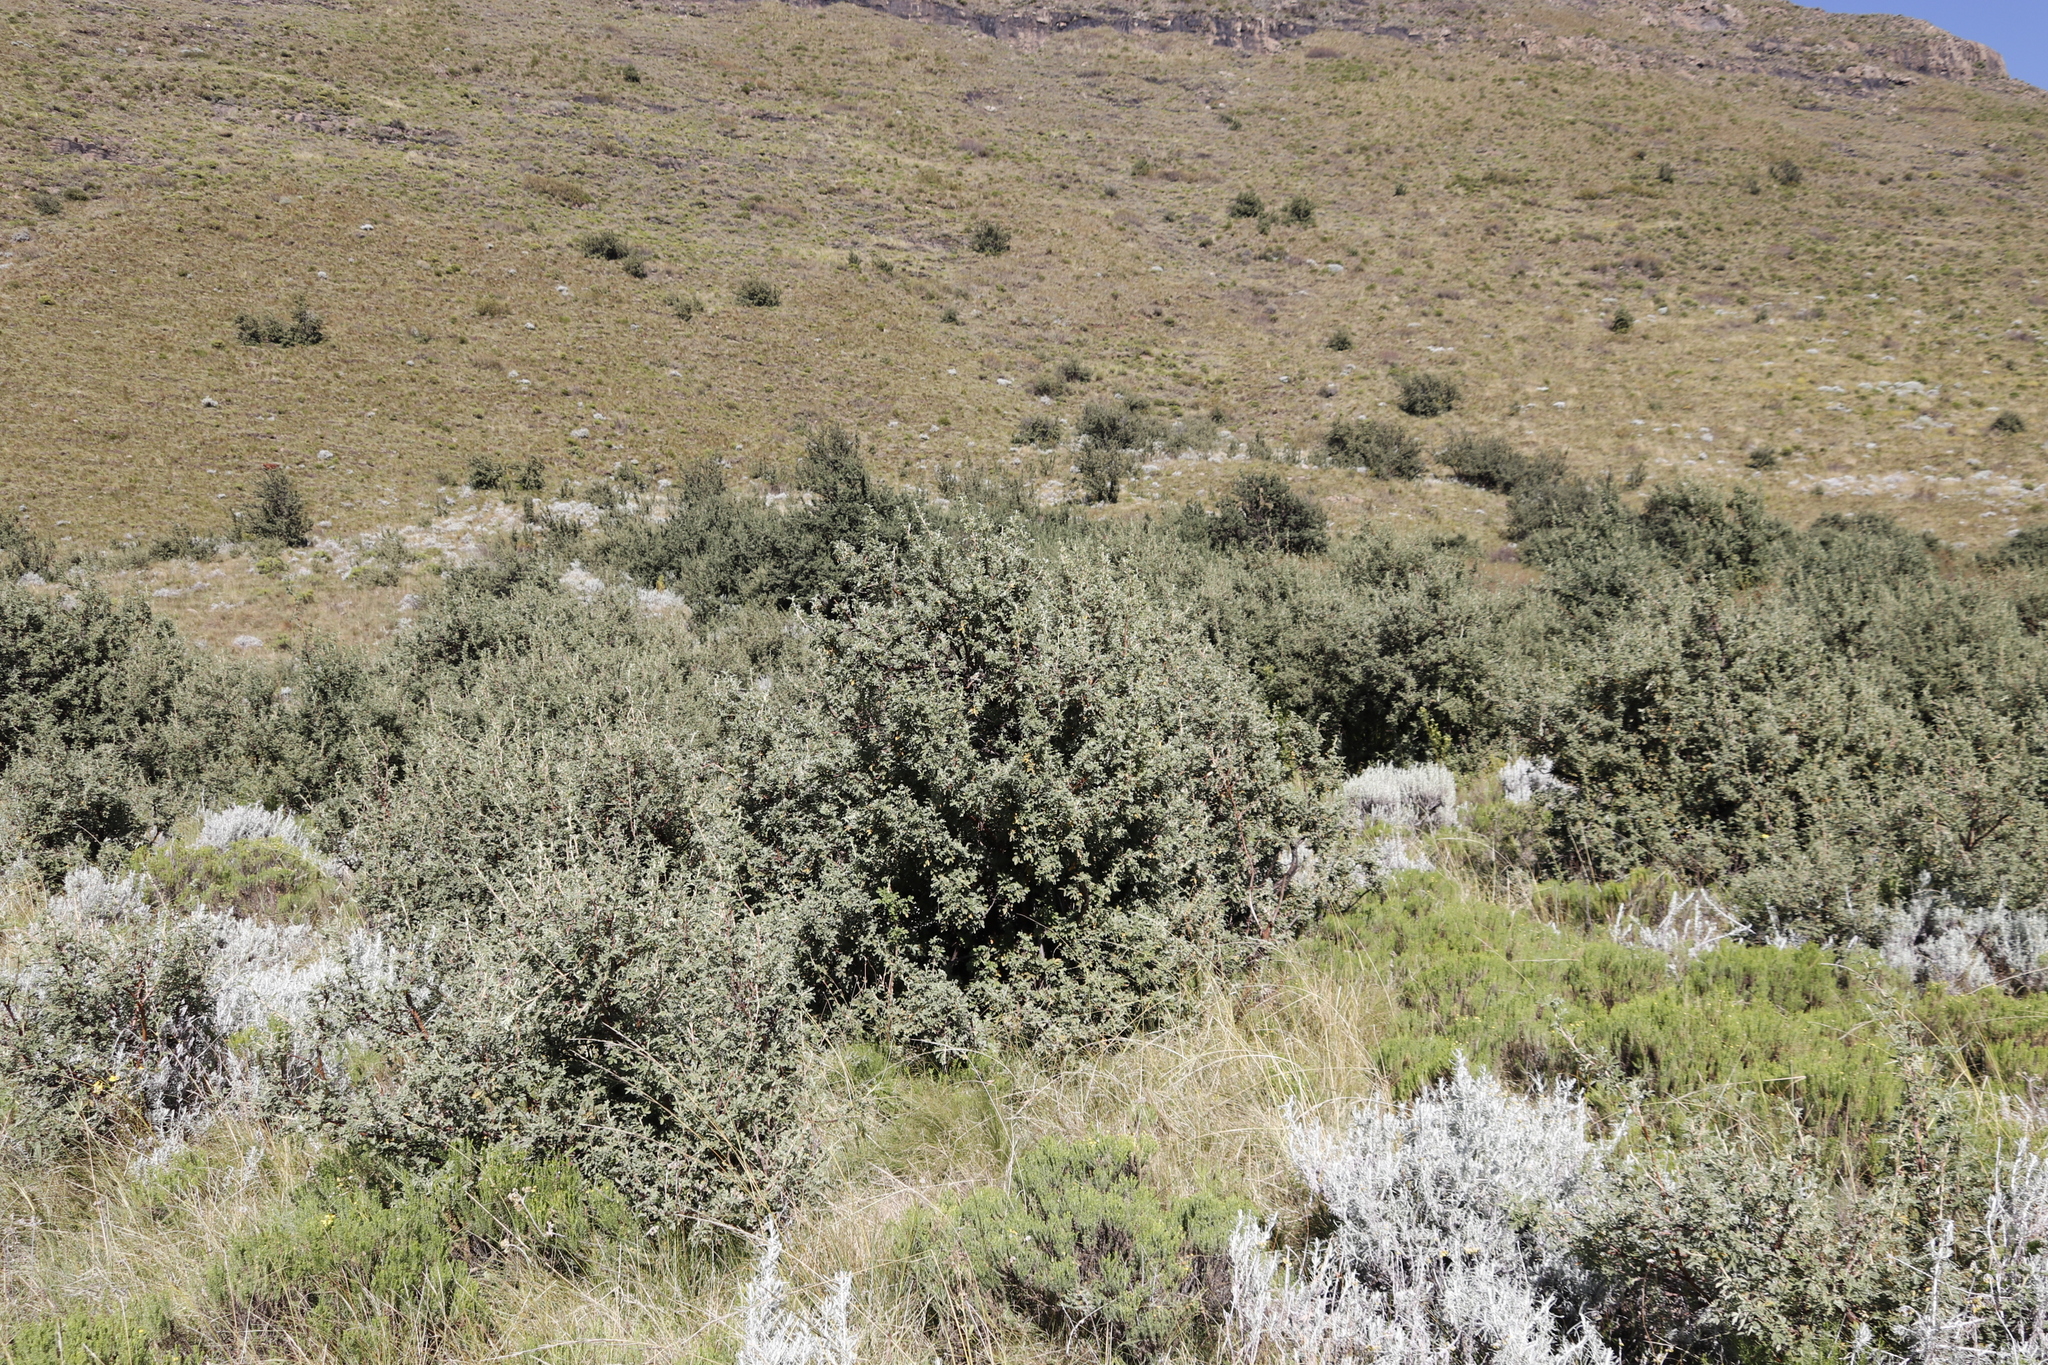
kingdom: Plantae
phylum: Tracheophyta
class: Magnoliopsida
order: Rosales
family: Rosaceae
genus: Leucosidea
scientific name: Leucosidea sericea
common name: Oldwood
